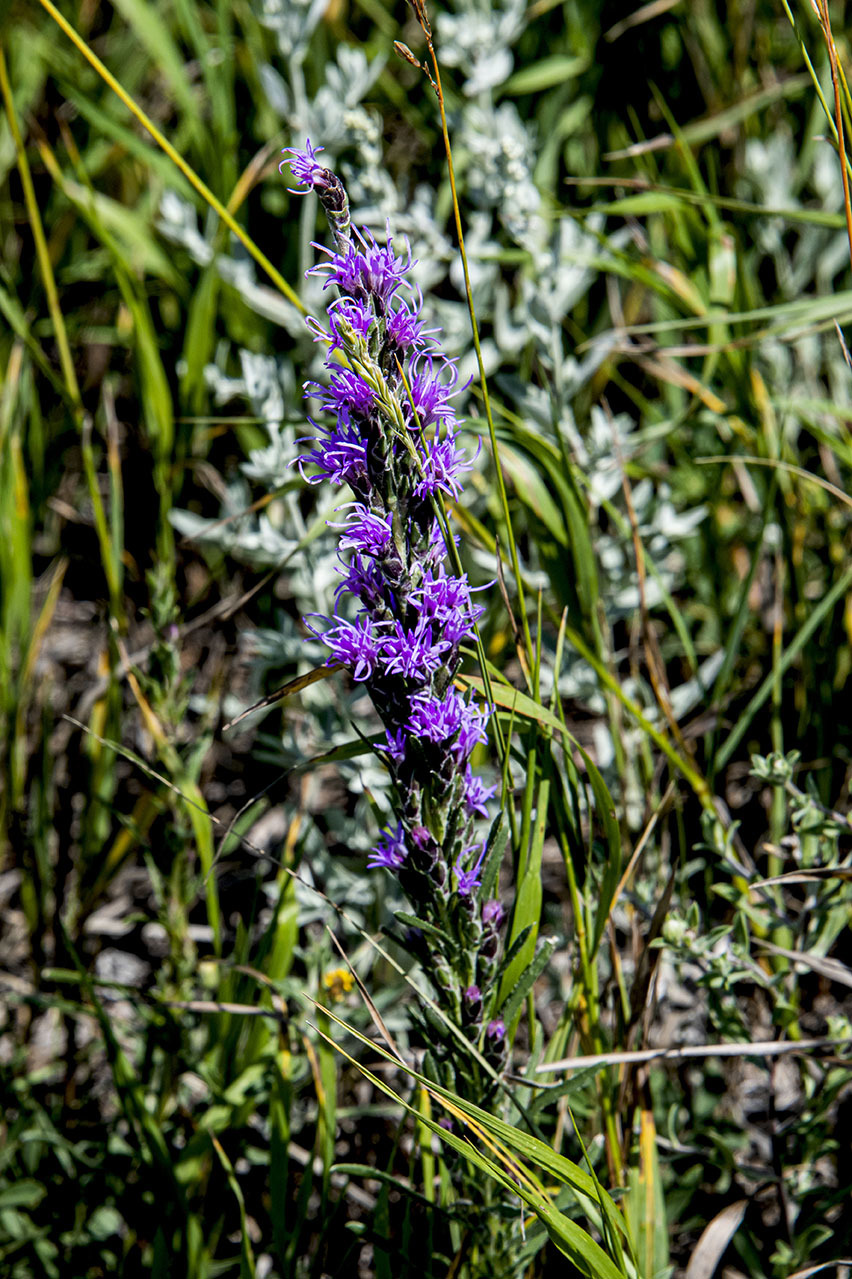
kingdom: Plantae
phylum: Tracheophyta
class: Magnoliopsida
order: Asterales
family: Asteraceae
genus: Liatris
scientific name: Liatris punctata
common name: Dotted gayfeather
